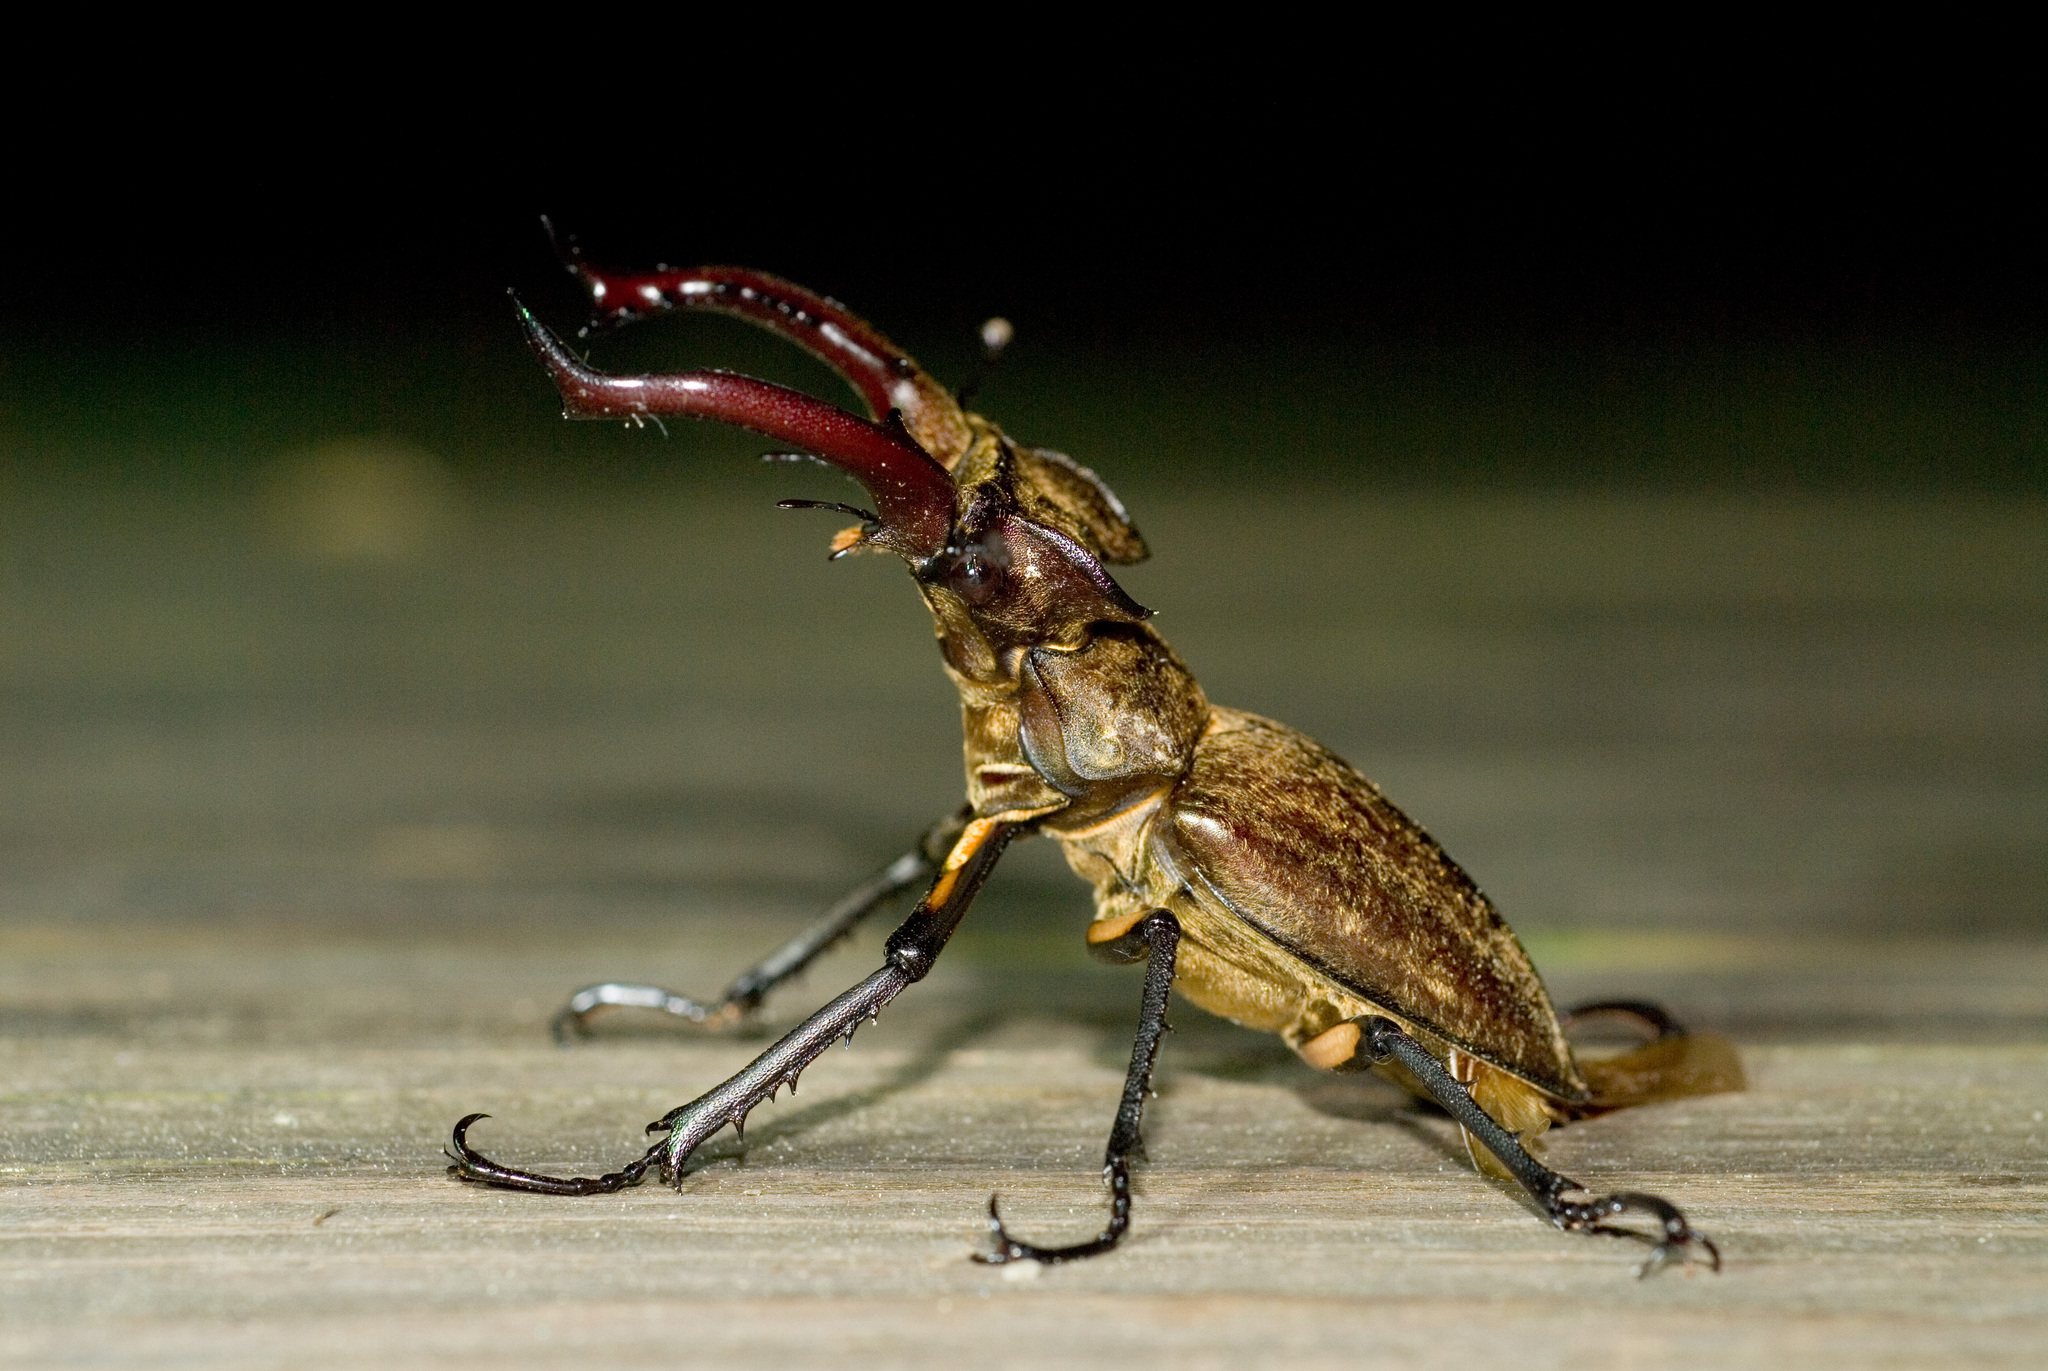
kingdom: Animalia
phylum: Arthropoda
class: Insecta
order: Coleoptera
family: Lucanidae
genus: Lucanus
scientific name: Lucanus maculifemoratus
